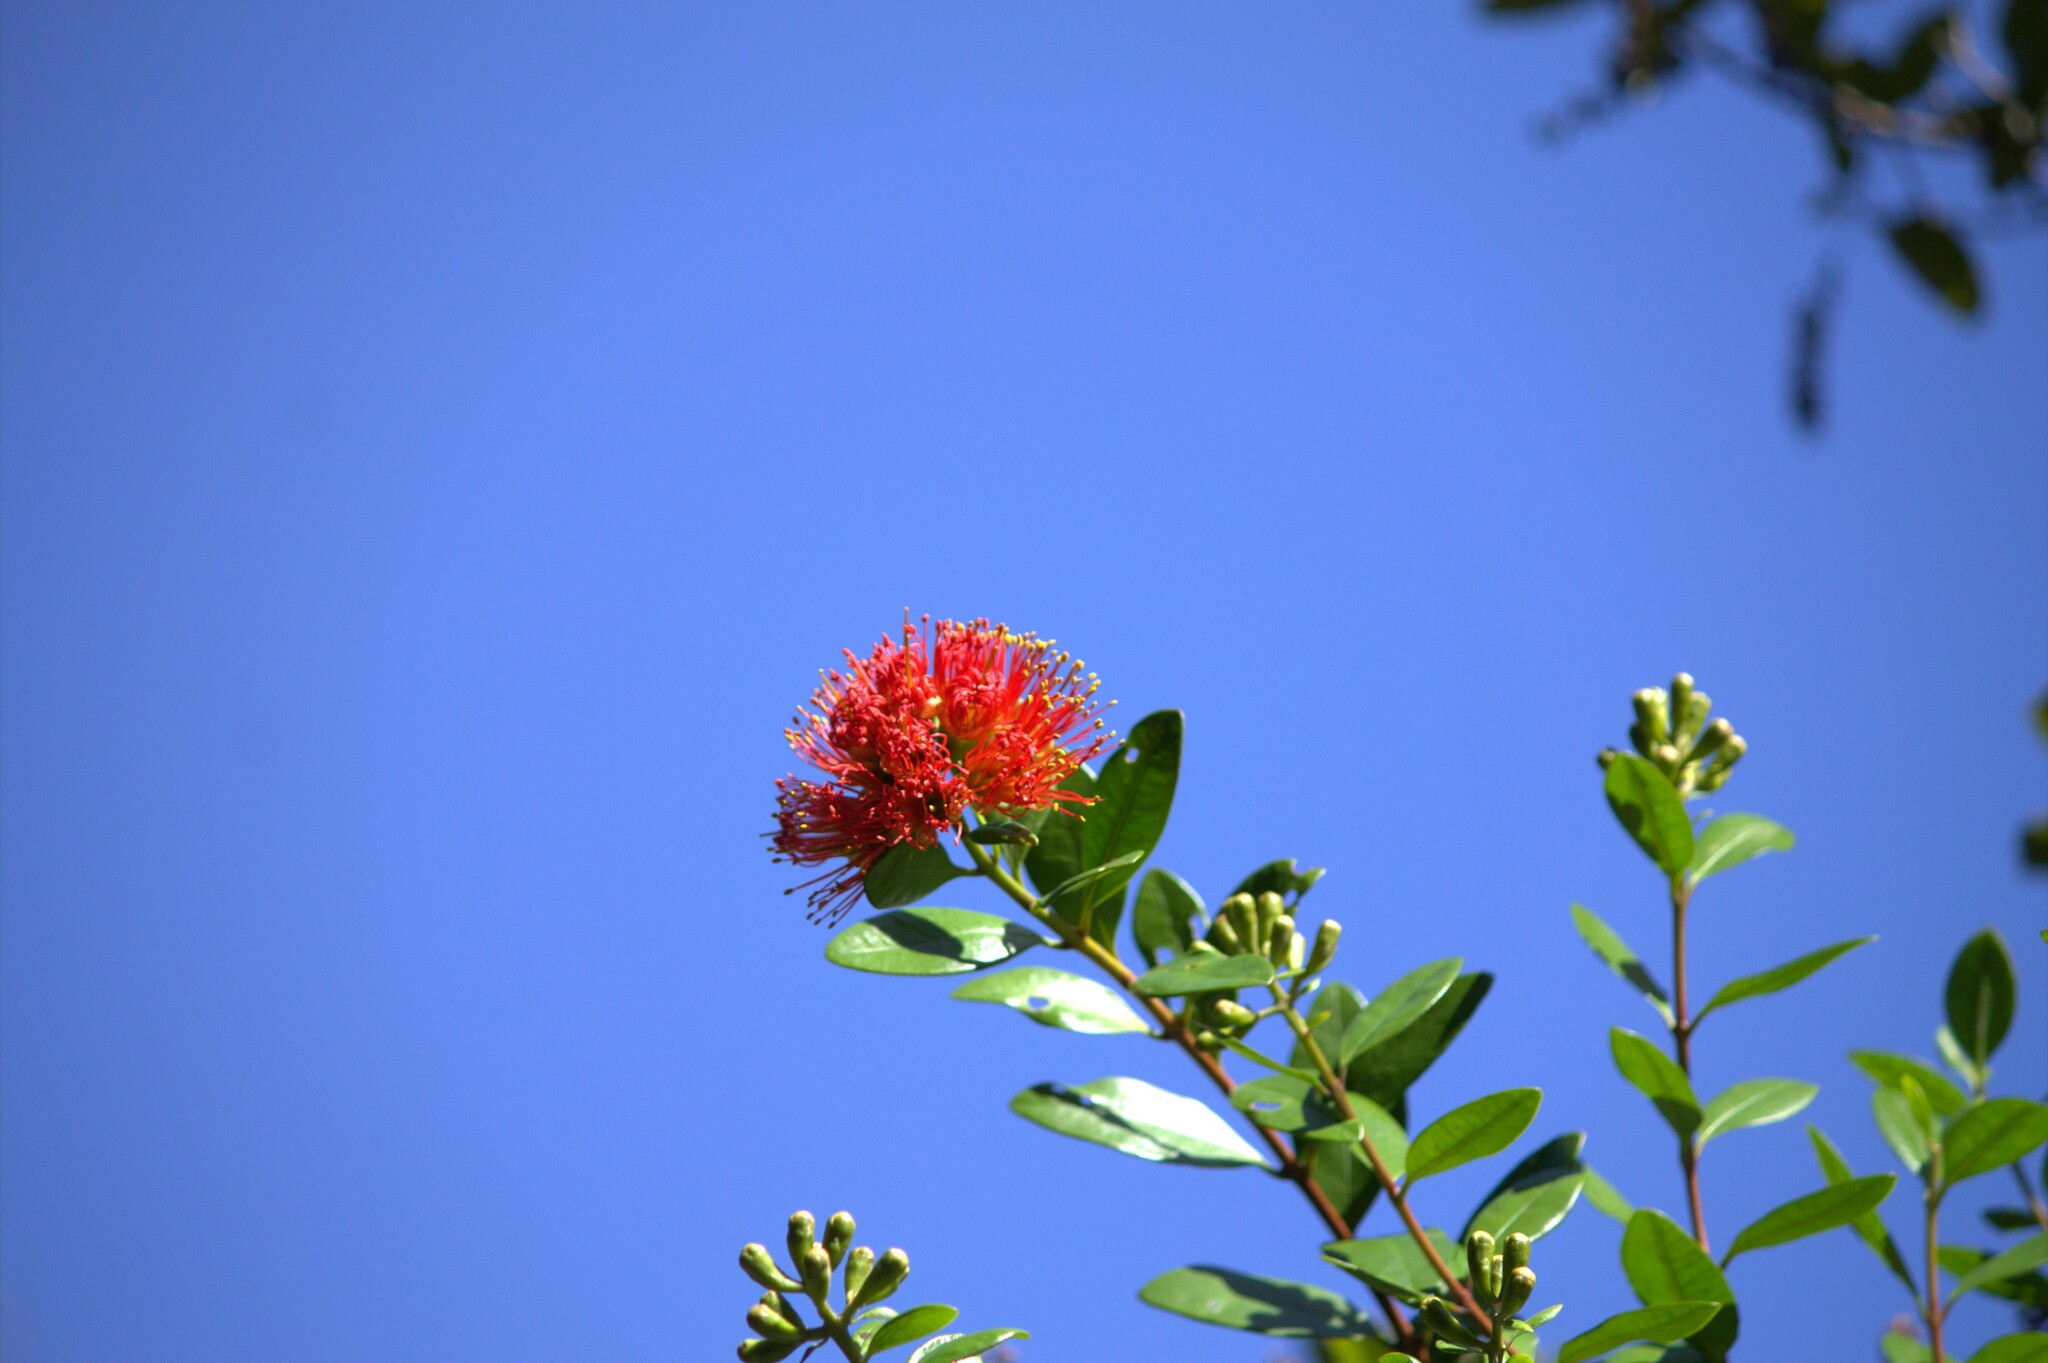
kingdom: Plantae
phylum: Tracheophyta
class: Magnoliopsida
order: Myrtales
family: Myrtaceae
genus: Metrosideros
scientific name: Metrosideros fulgens
